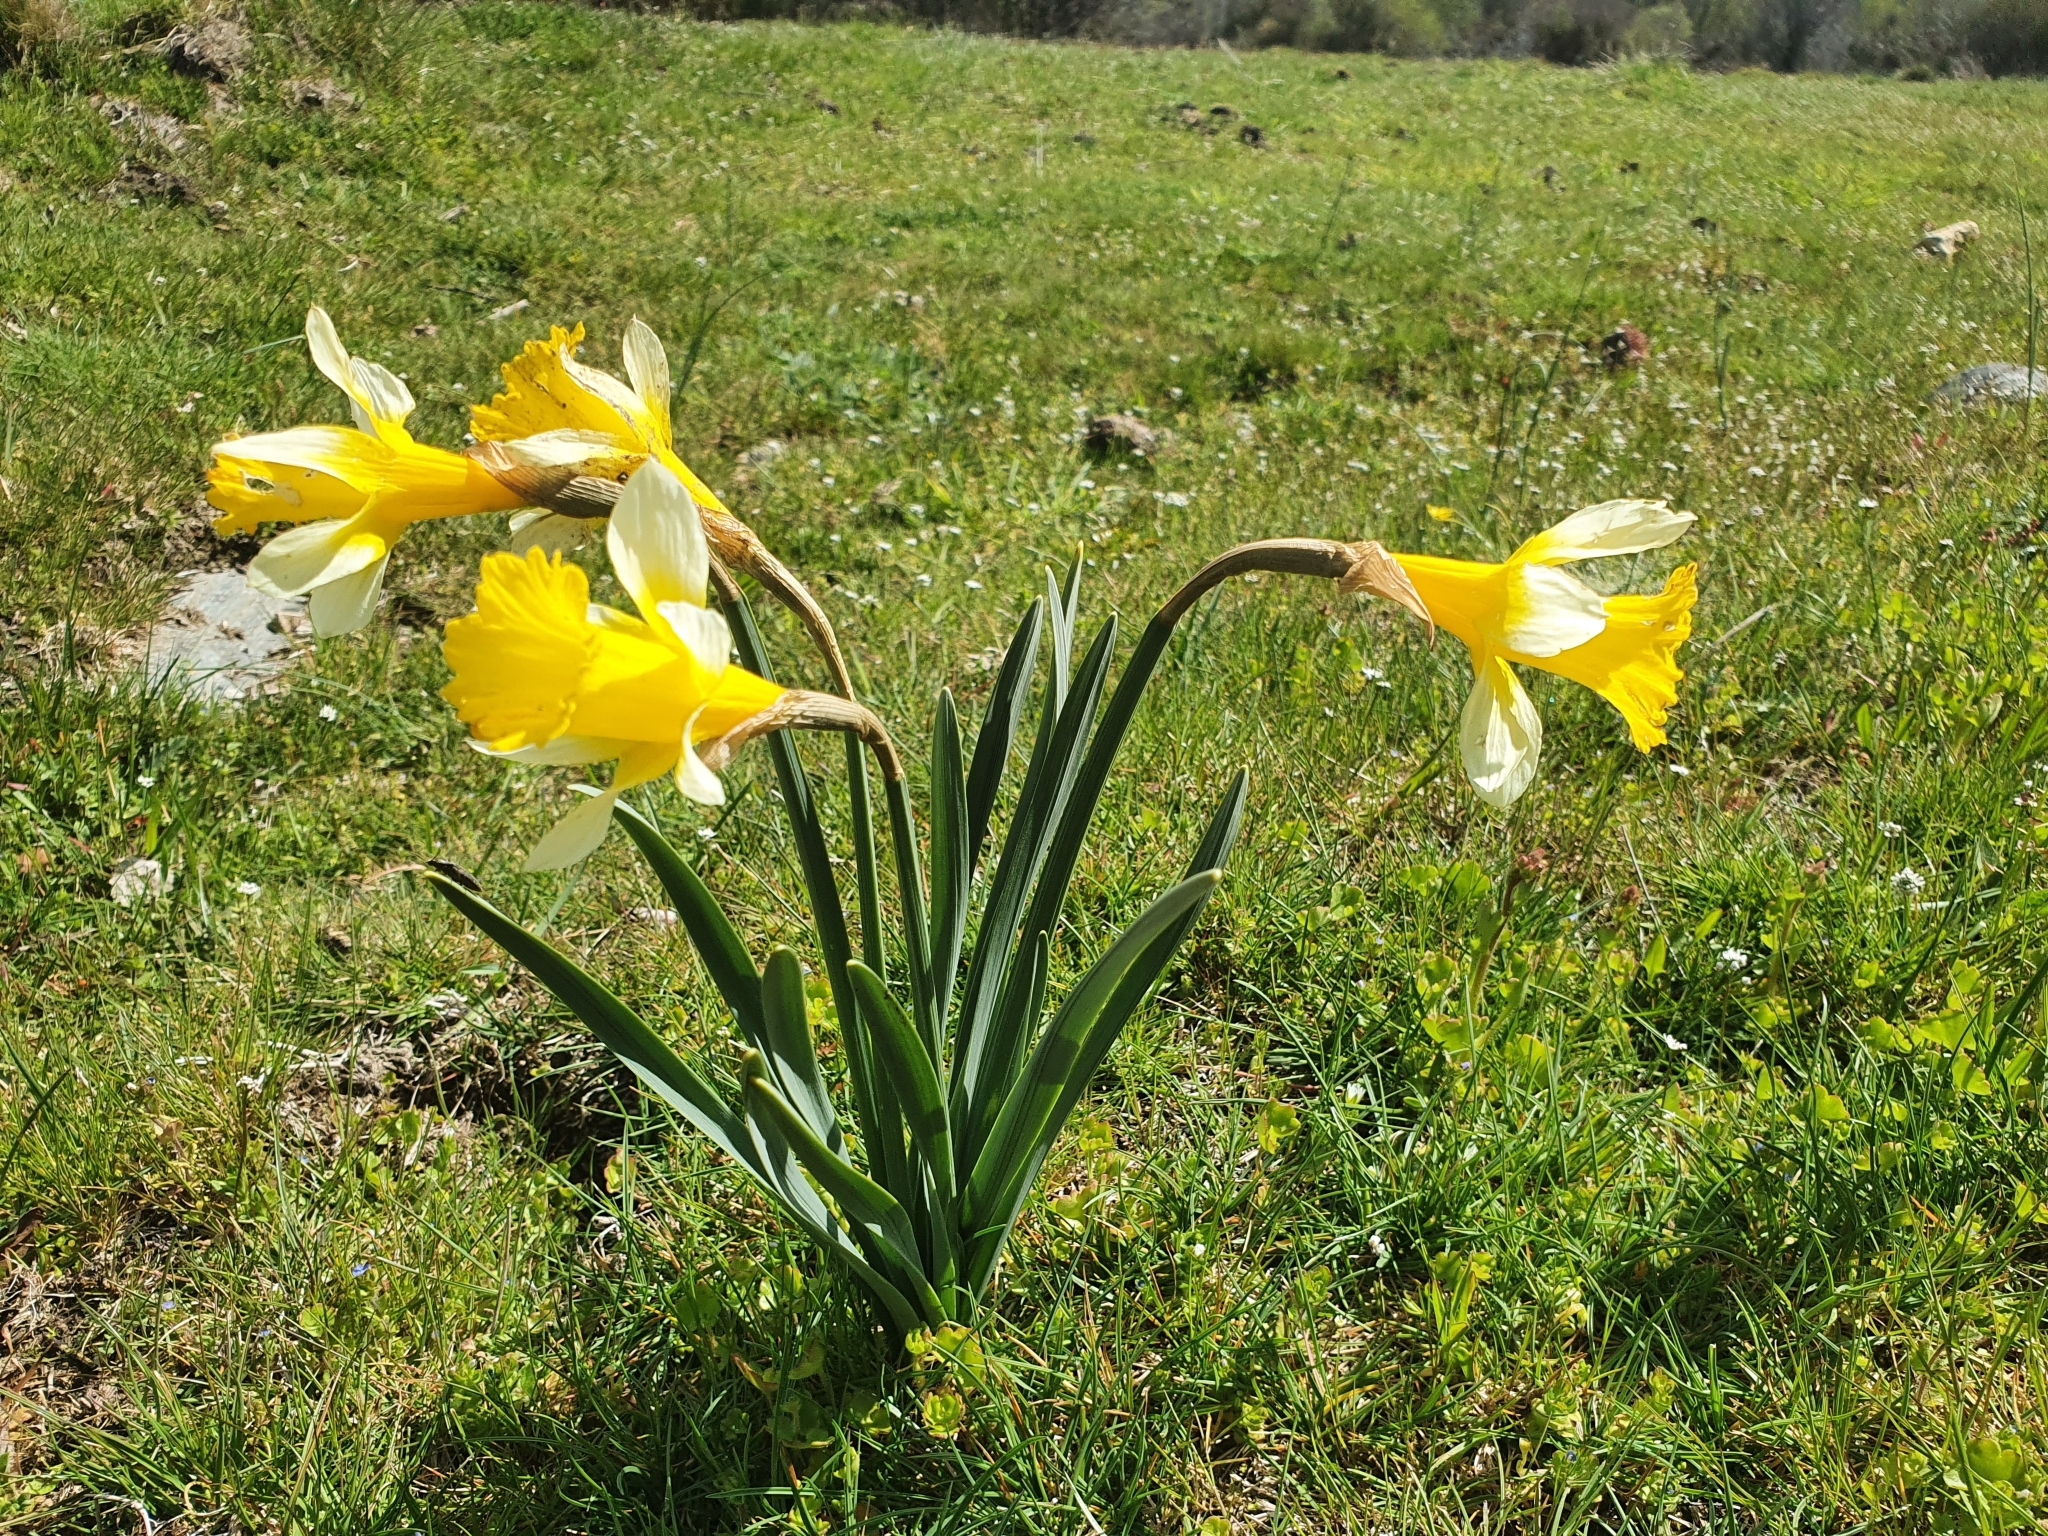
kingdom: Plantae
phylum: Tracheophyta
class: Liliopsida
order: Asparagales
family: Amaryllidaceae
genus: Narcissus
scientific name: Narcissus pseudonarcissus
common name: Daffodil
